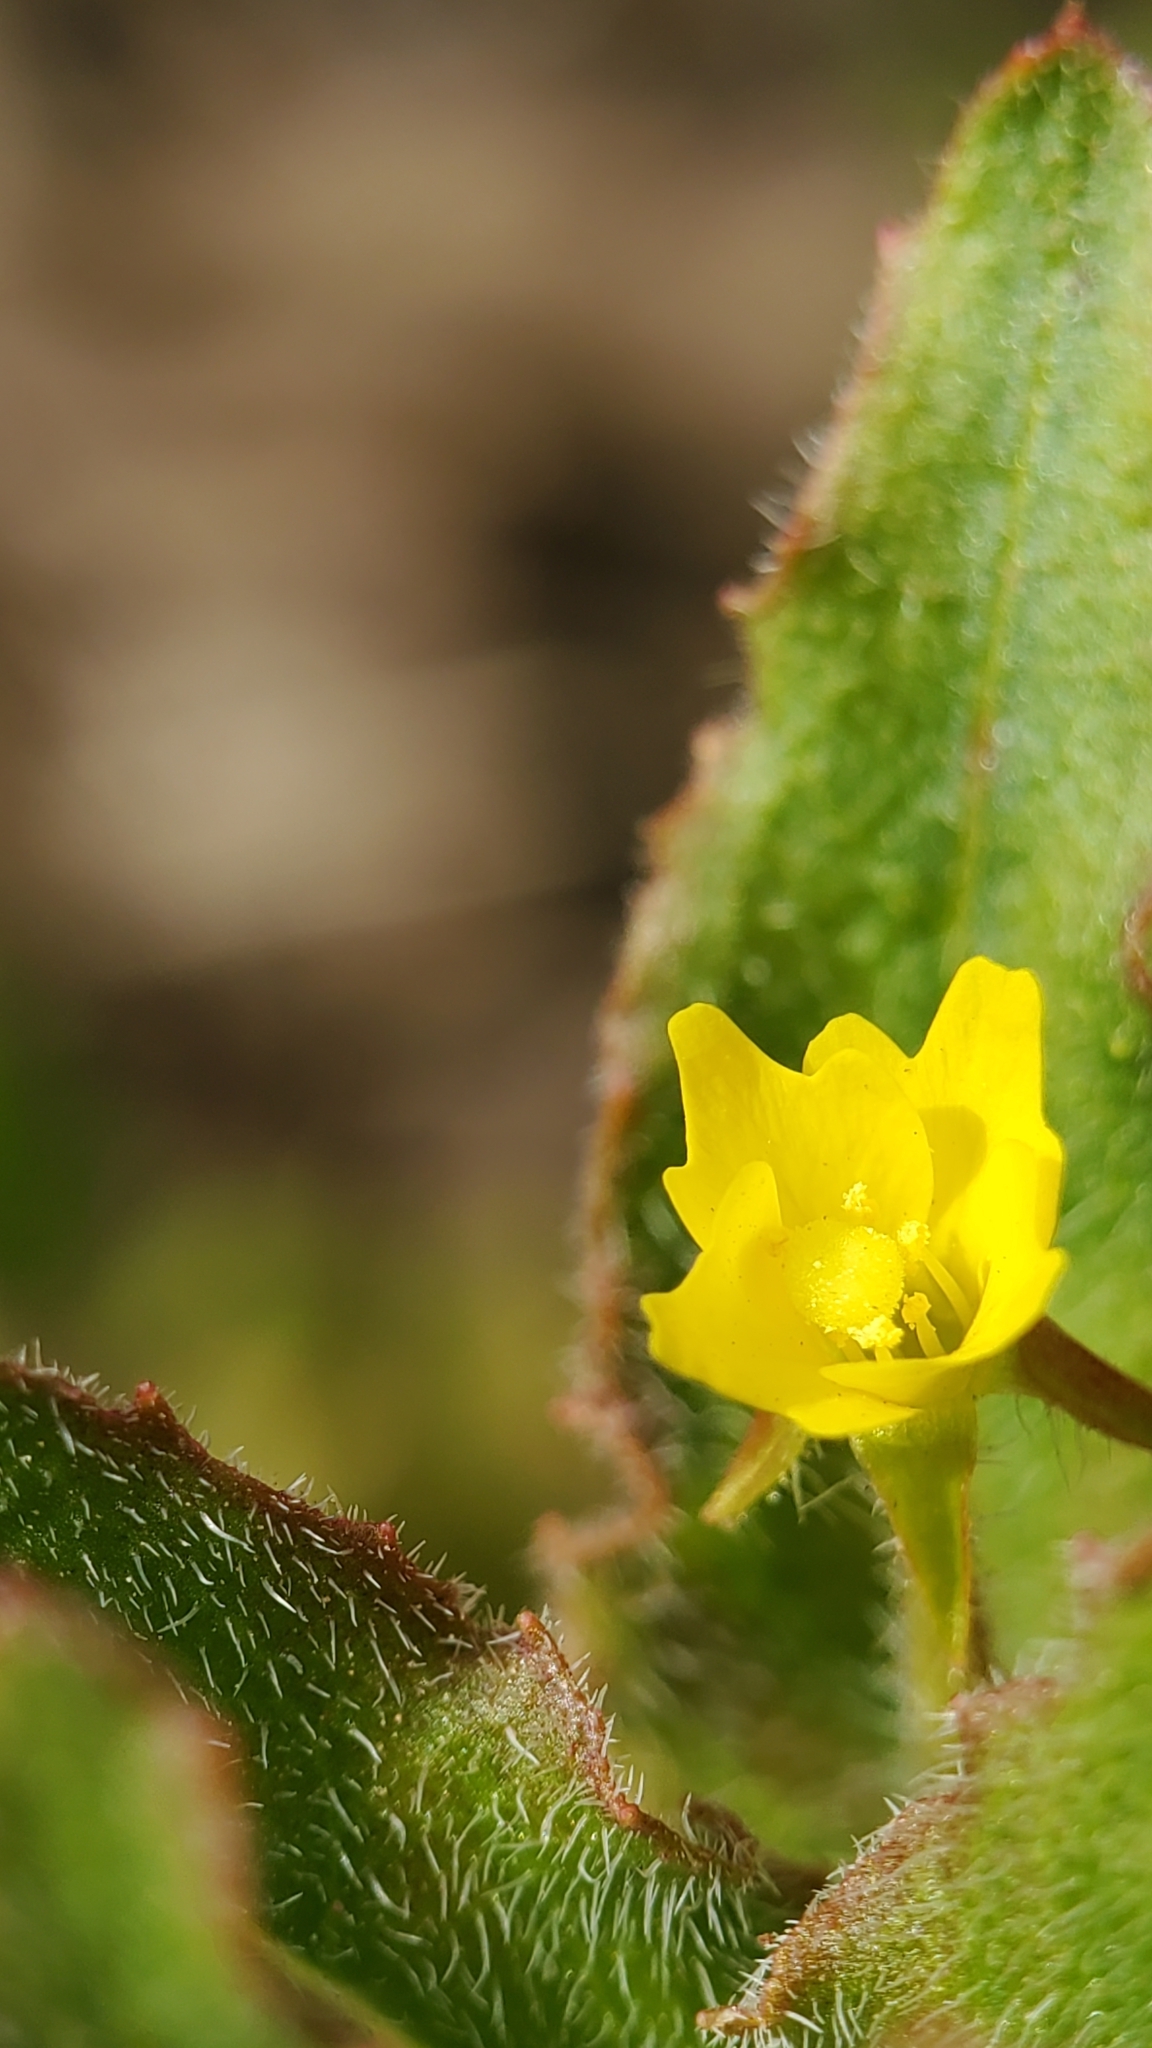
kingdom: Plantae
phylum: Tracheophyta
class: Magnoliopsida
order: Myrtales
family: Onagraceae
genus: Camissoniopsis
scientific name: Camissoniopsis micrantha
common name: Miniature suncup
